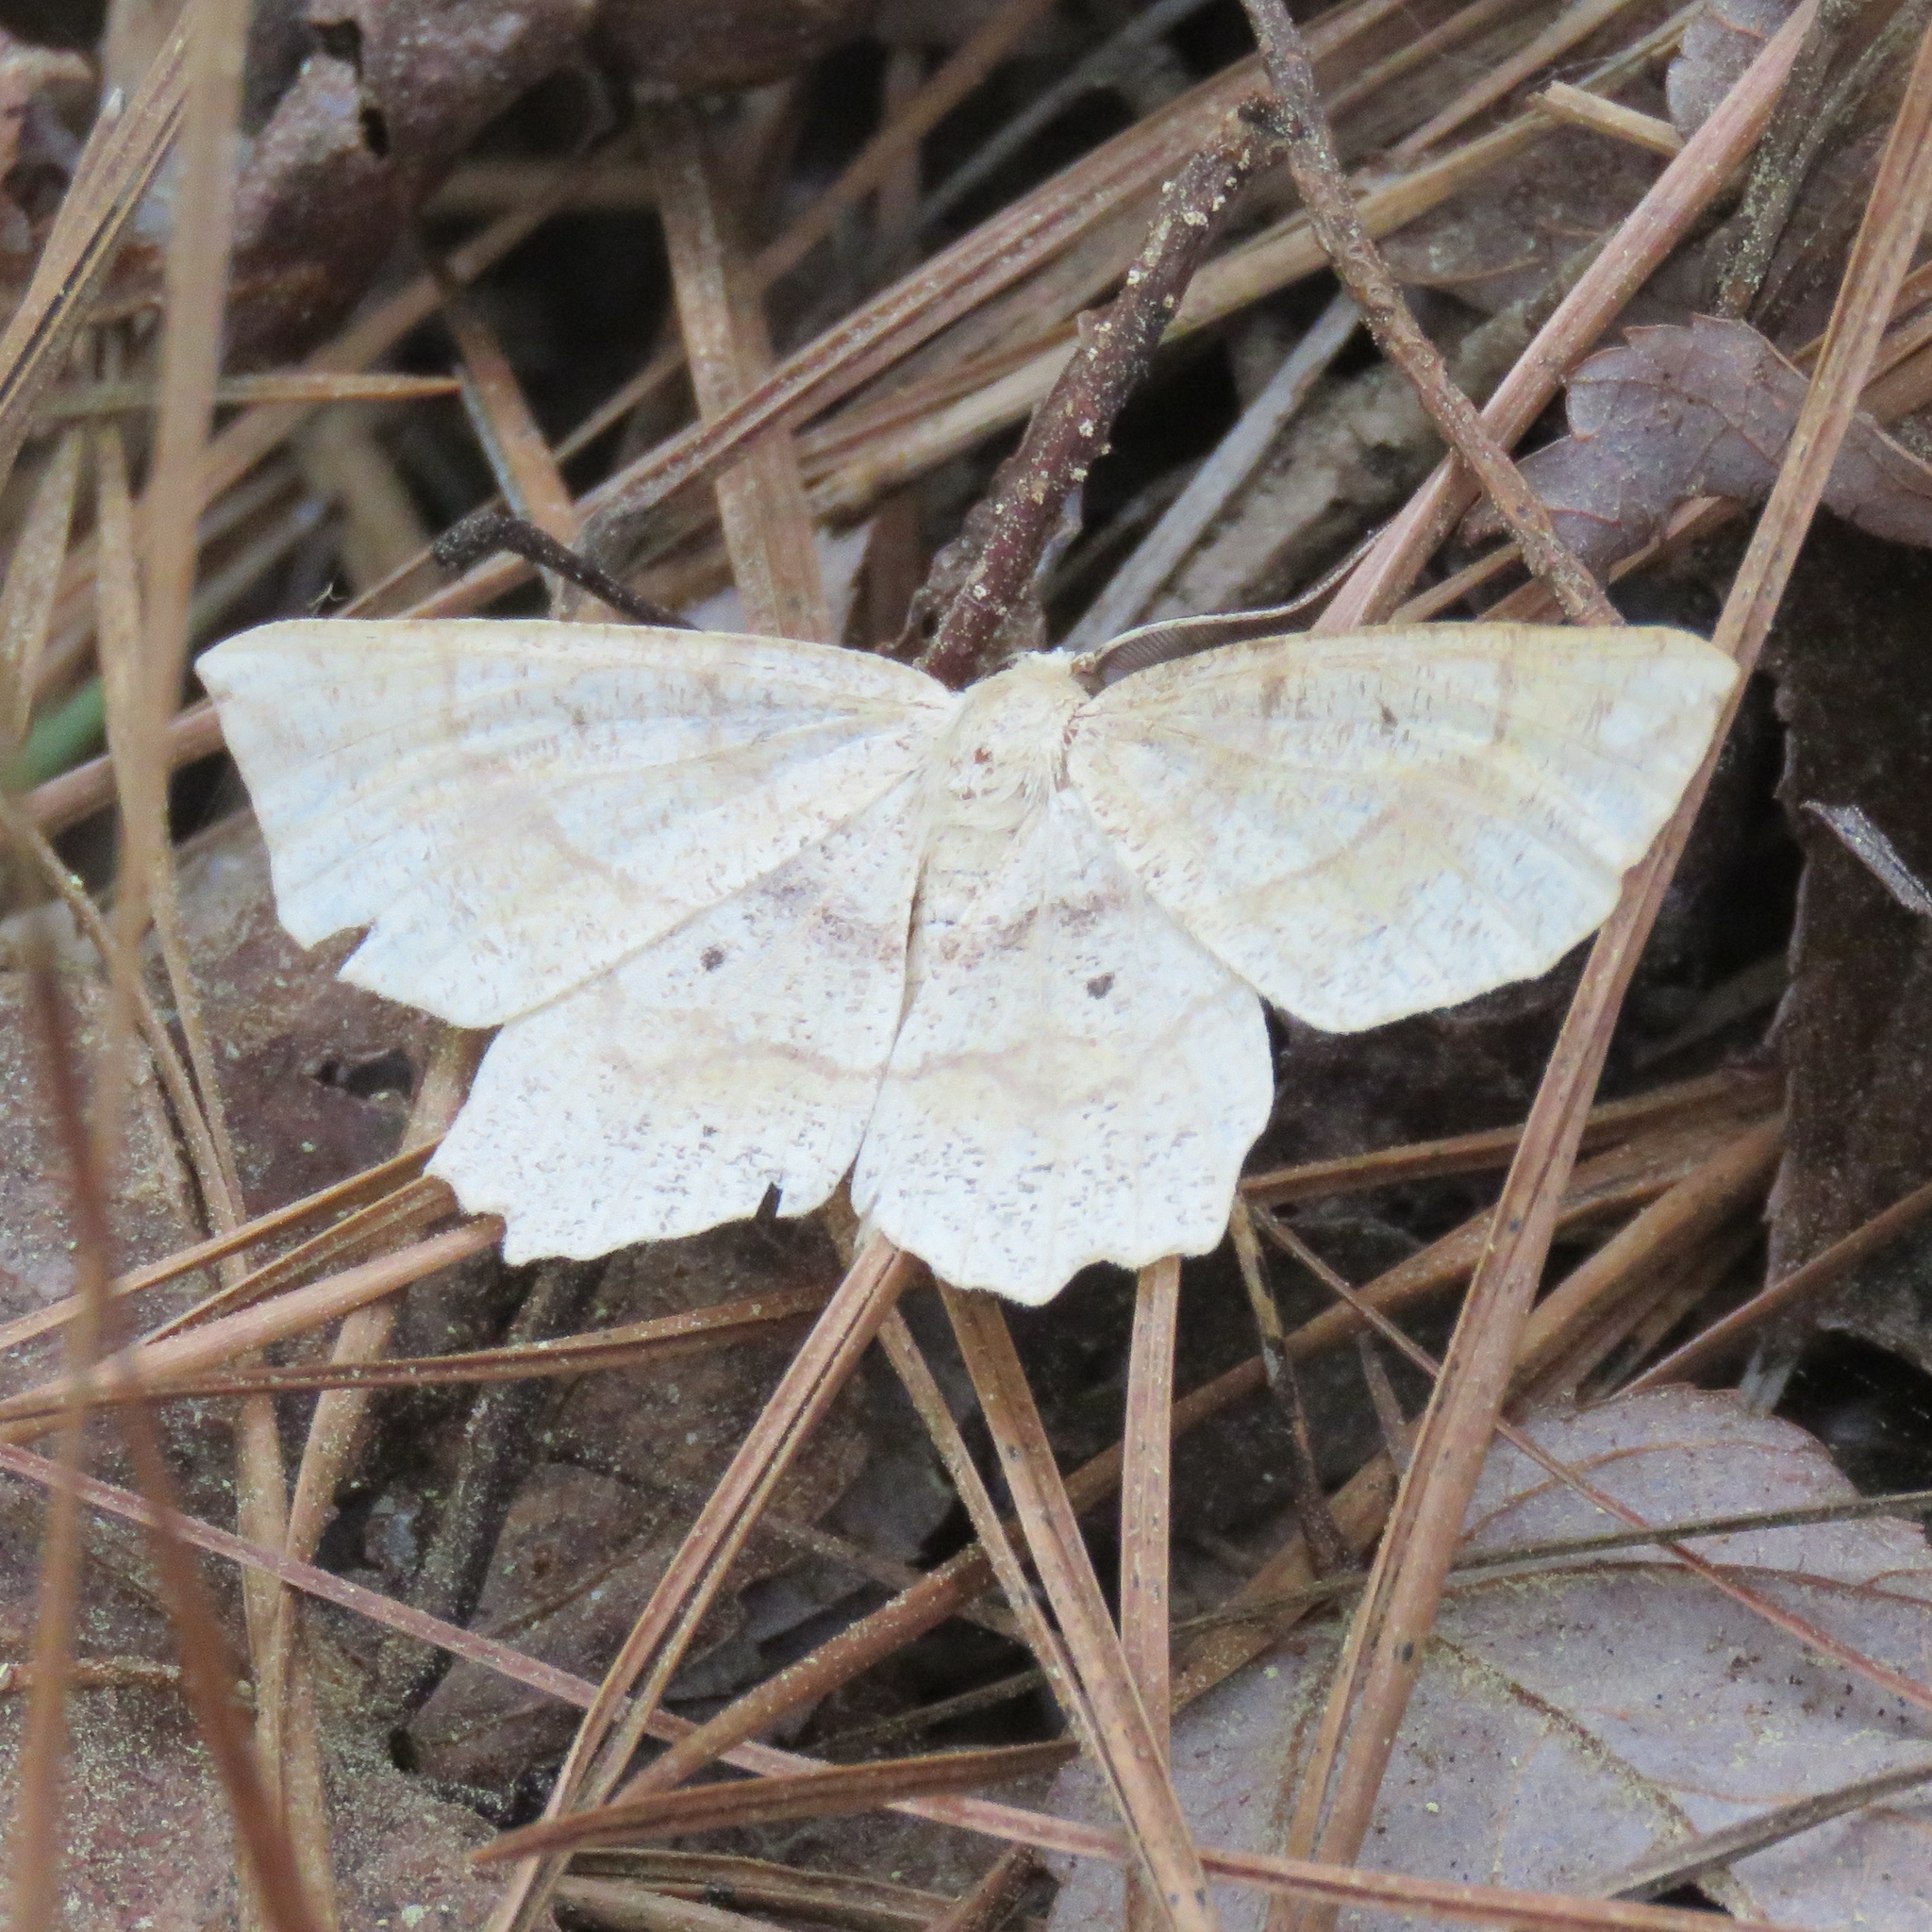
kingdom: Animalia
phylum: Arthropoda
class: Insecta
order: Lepidoptera
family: Geometridae
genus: Euchlaena
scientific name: Euchlaena deplanaria
